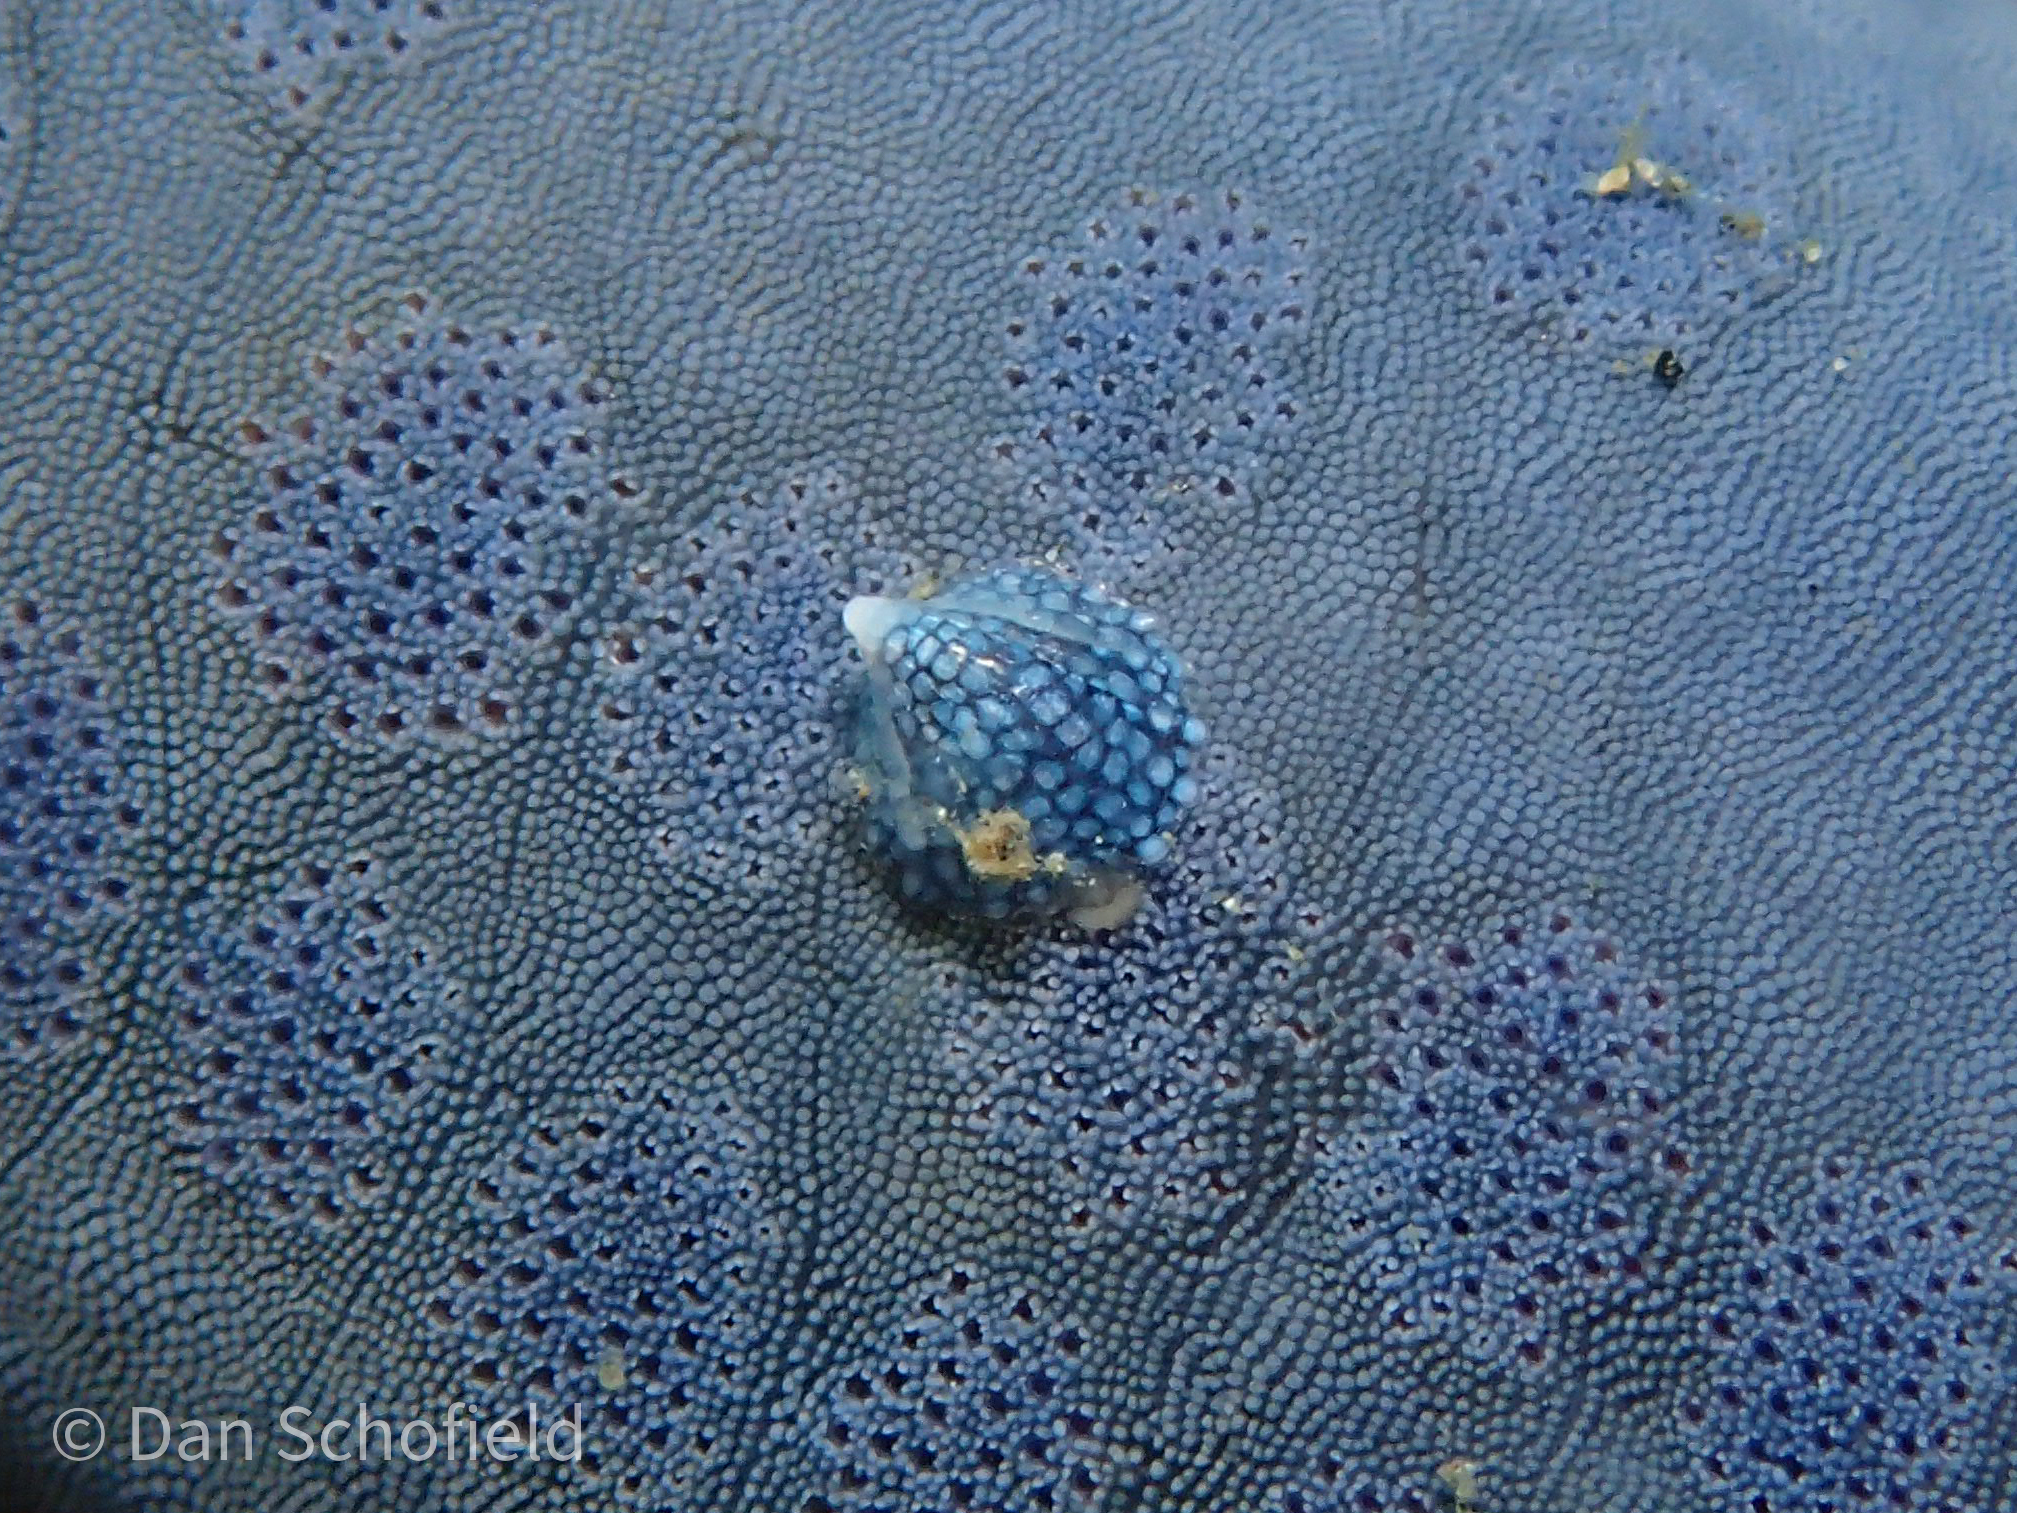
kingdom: Animalia
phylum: Mollusca
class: Gastropoda
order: Littorinimorpha
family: Eulimidae
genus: Thyca
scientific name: Thyca crystallina
